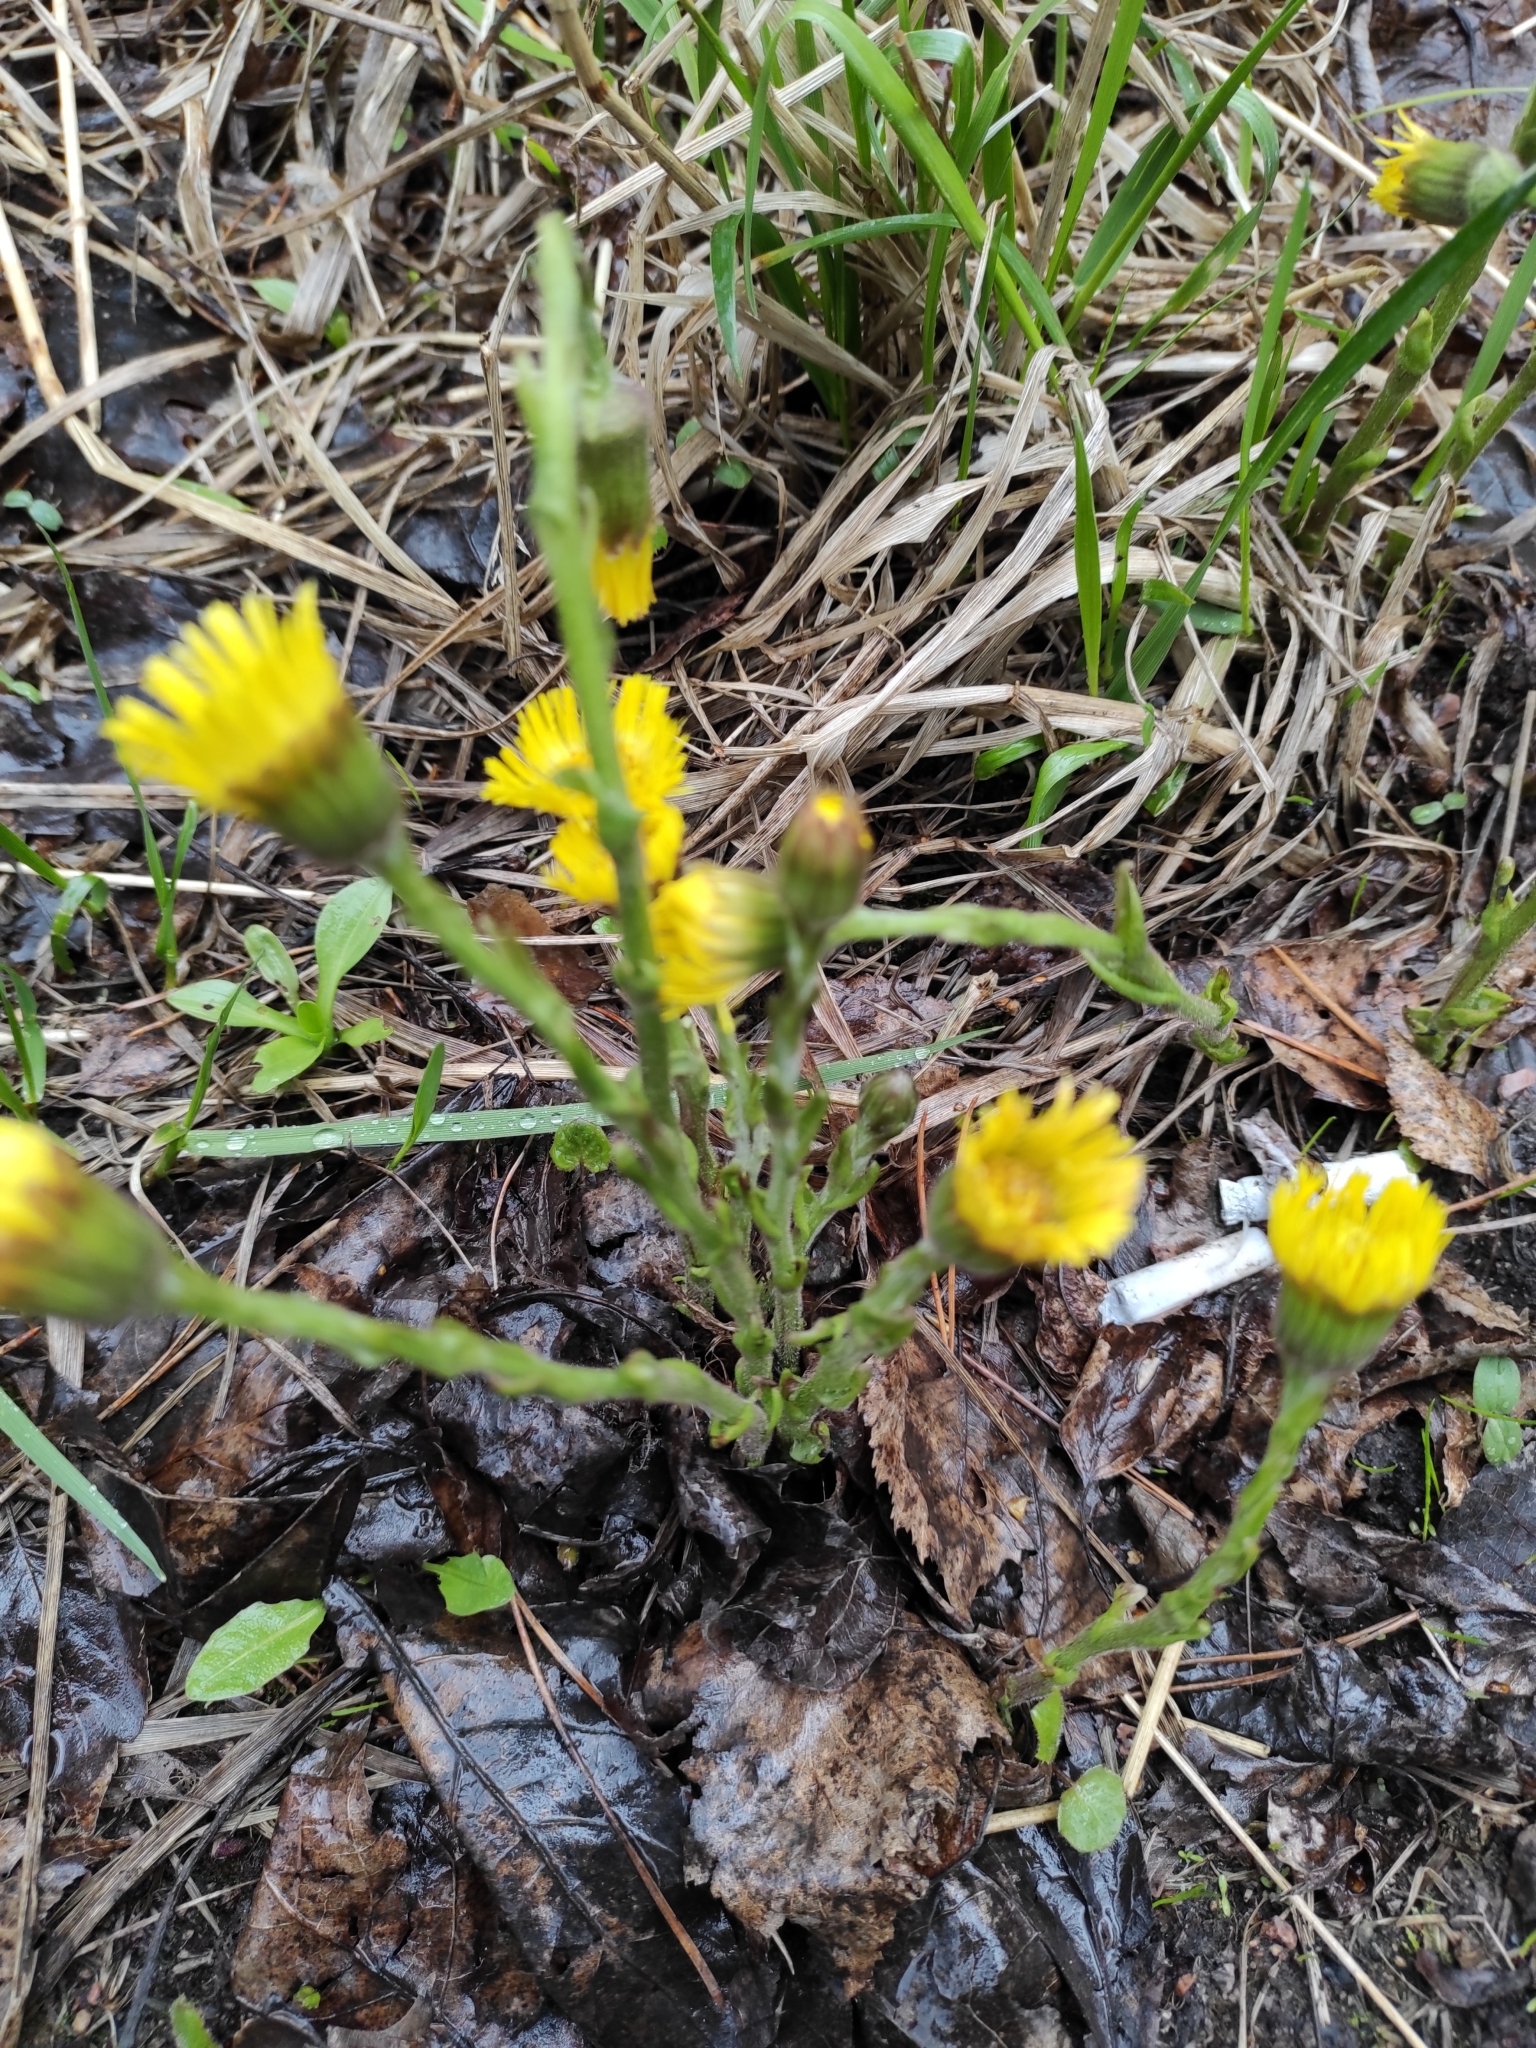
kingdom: Plantae
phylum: Tracheophyta
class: Magnoliopsida
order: Asterales
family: Asteraceae
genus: Tussilago
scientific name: Tussilago farfara
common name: Coltsfoot
